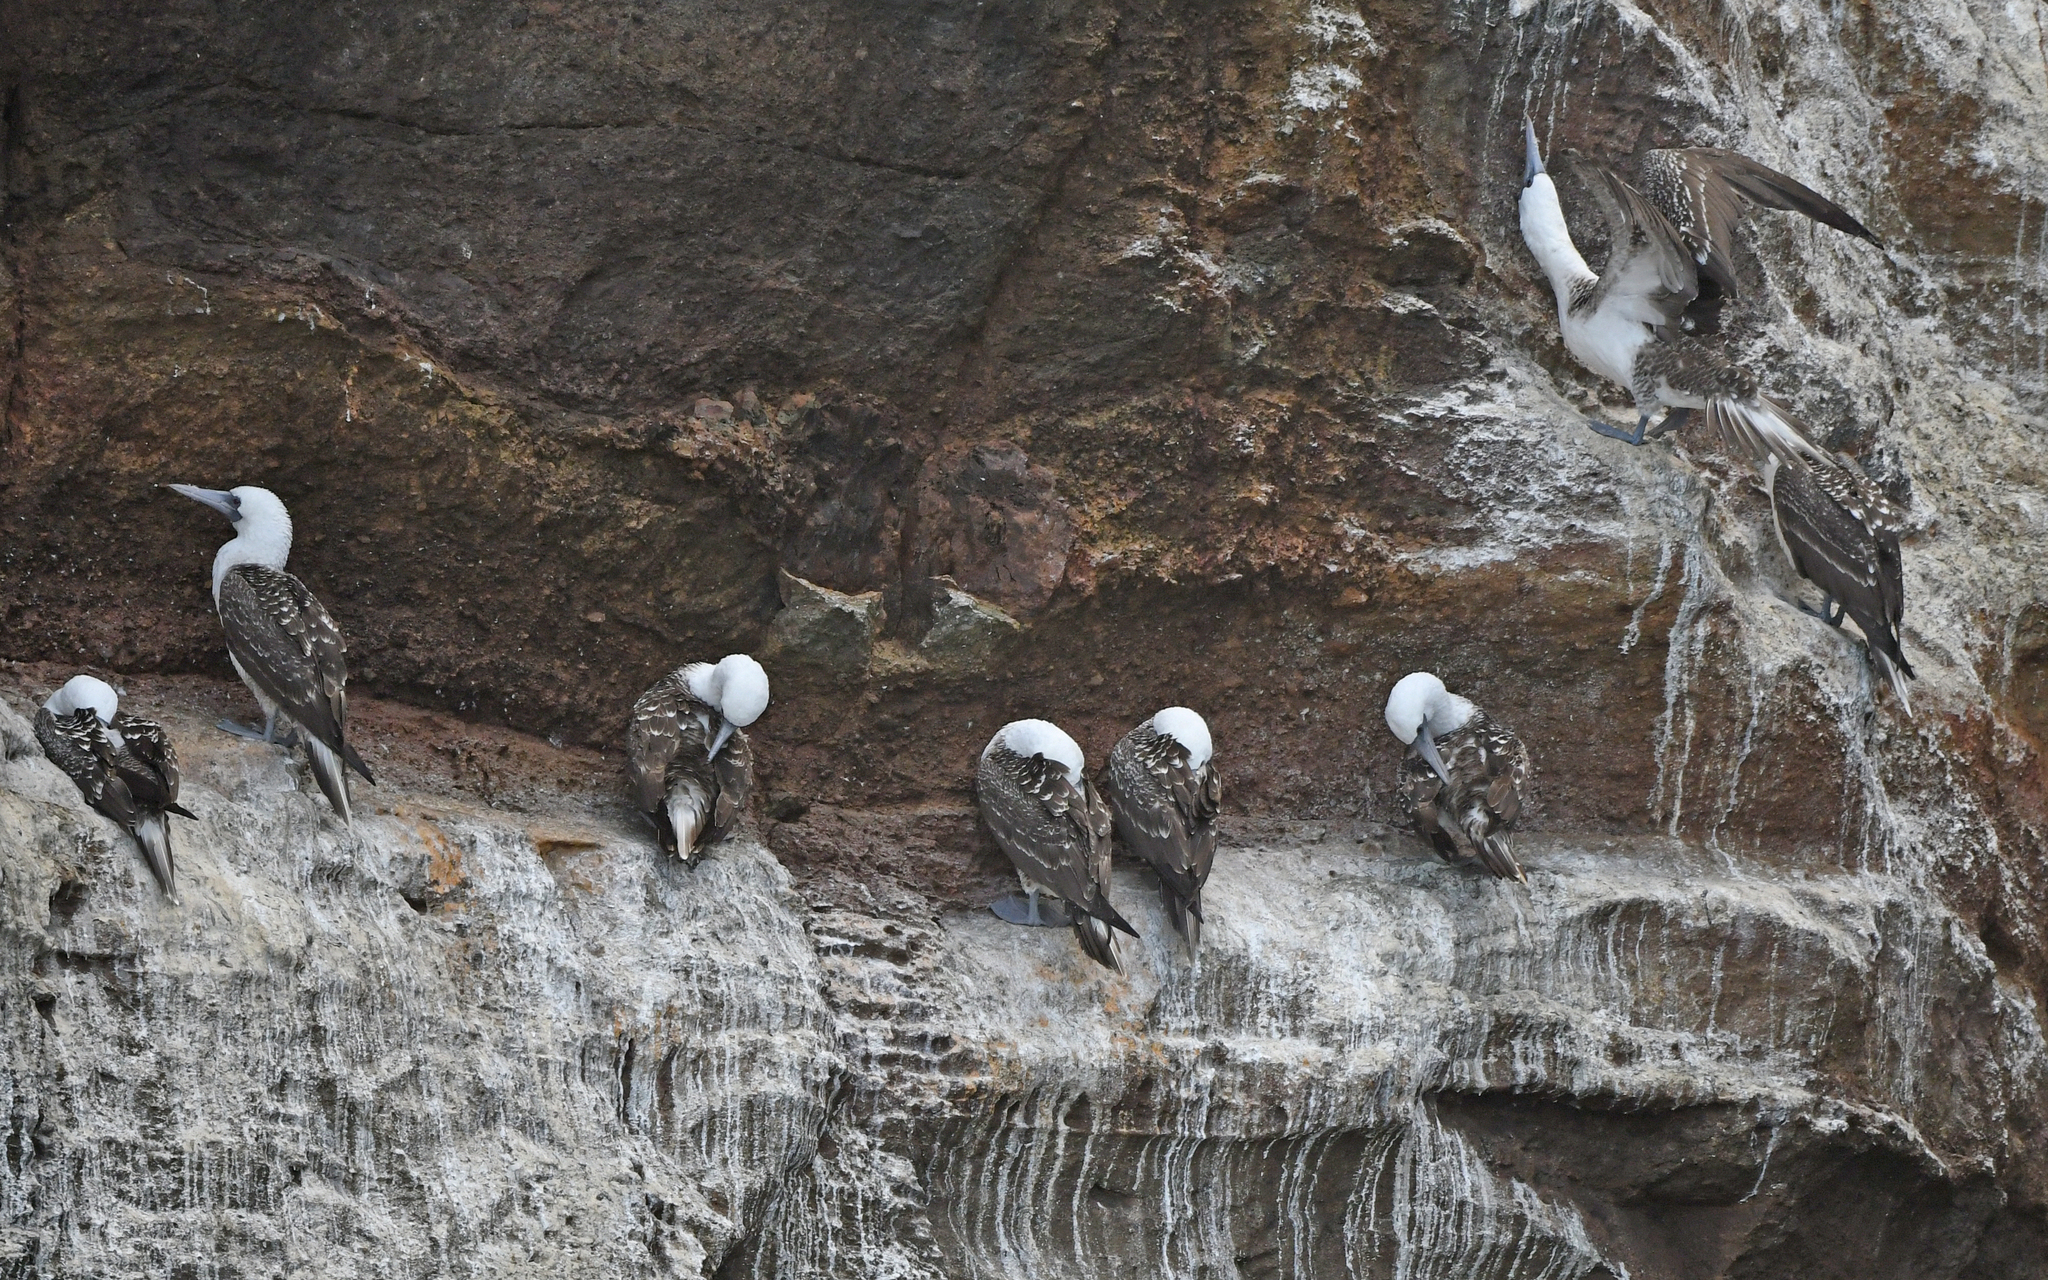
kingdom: Animalia
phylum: Chordata
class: Aves
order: Suliformes
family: Sulidae
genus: Sula
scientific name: Sula variegata
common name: Peruvian booby
